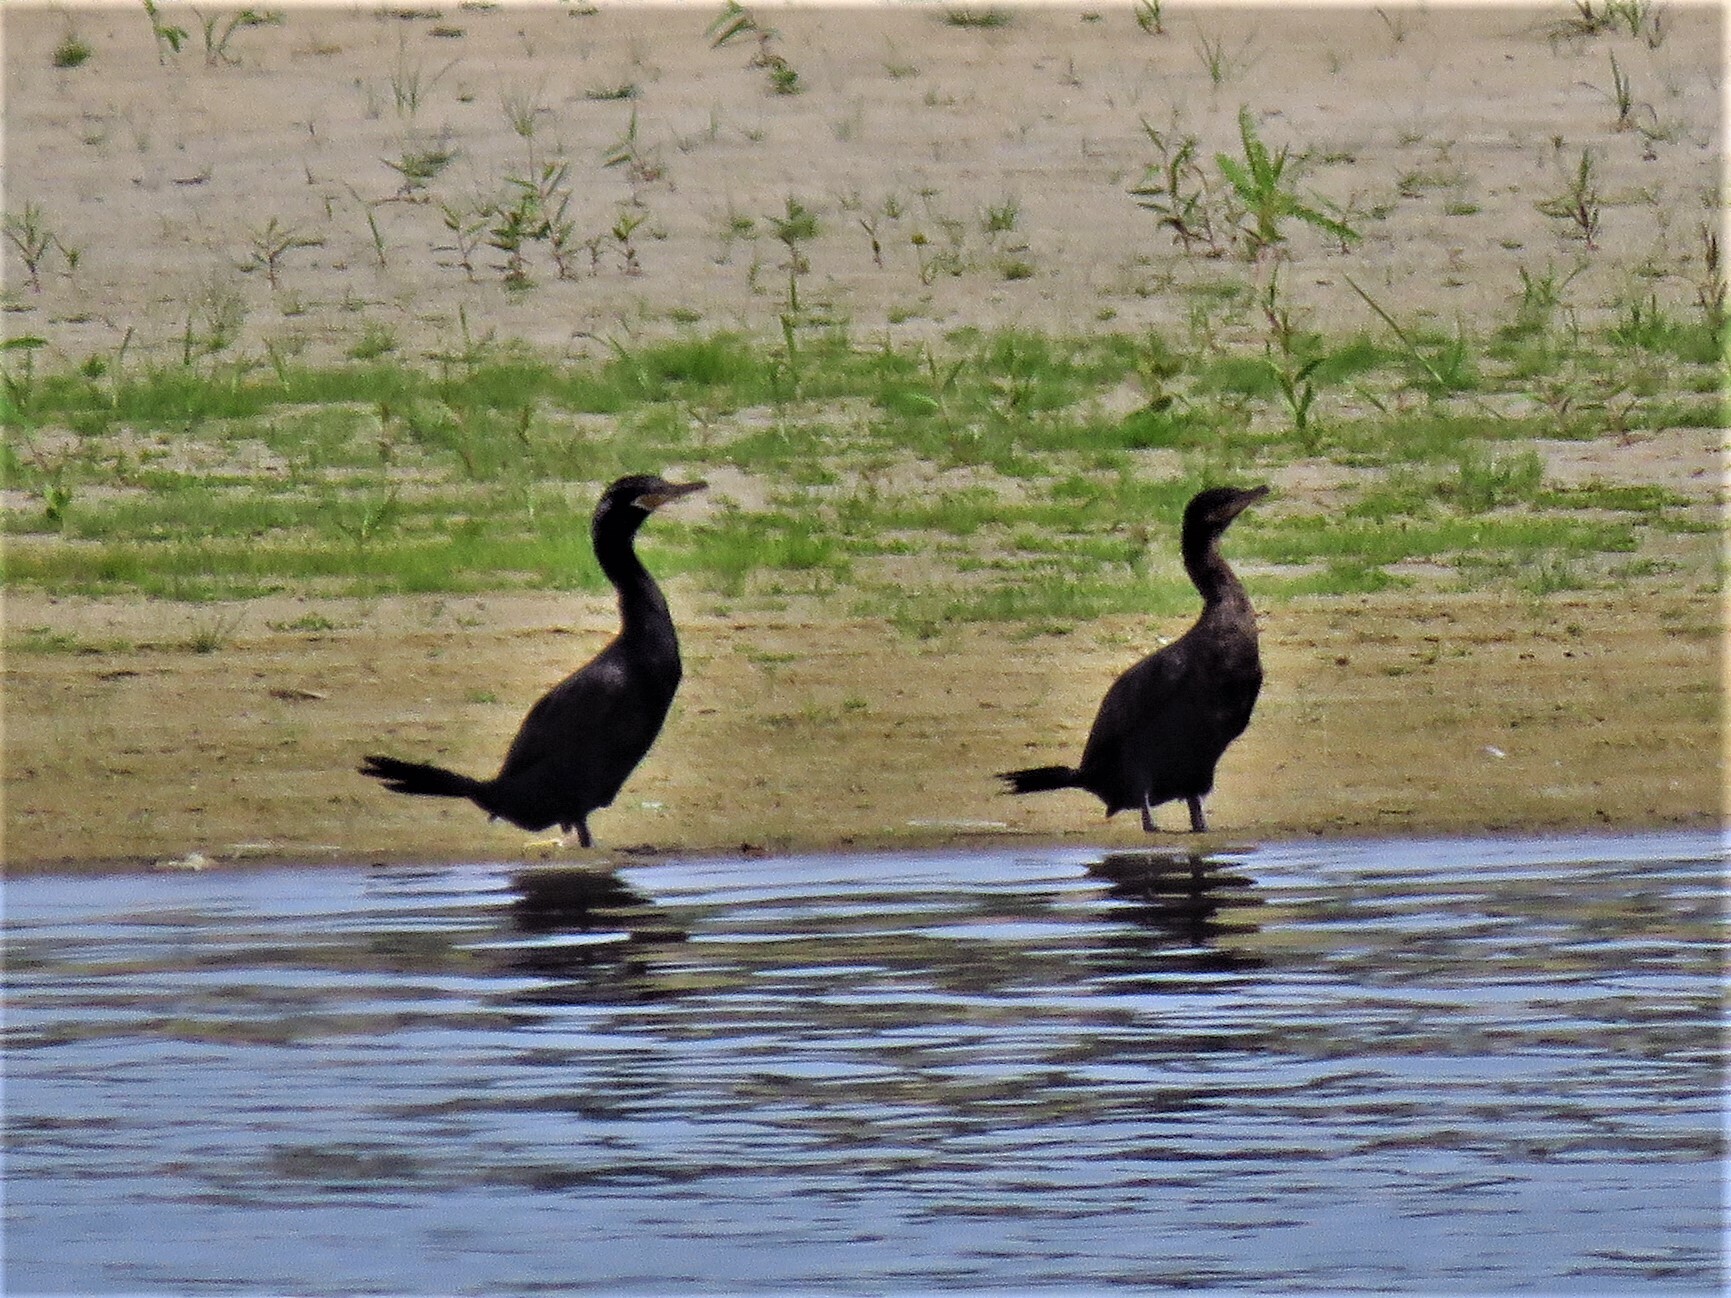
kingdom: Animalia
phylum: Chordata
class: Aves
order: Suliformes
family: Phalacrocoracidae
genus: Phalacrocorax
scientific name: Phalacrocorax brasilianus
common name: Neotropic cormorant
